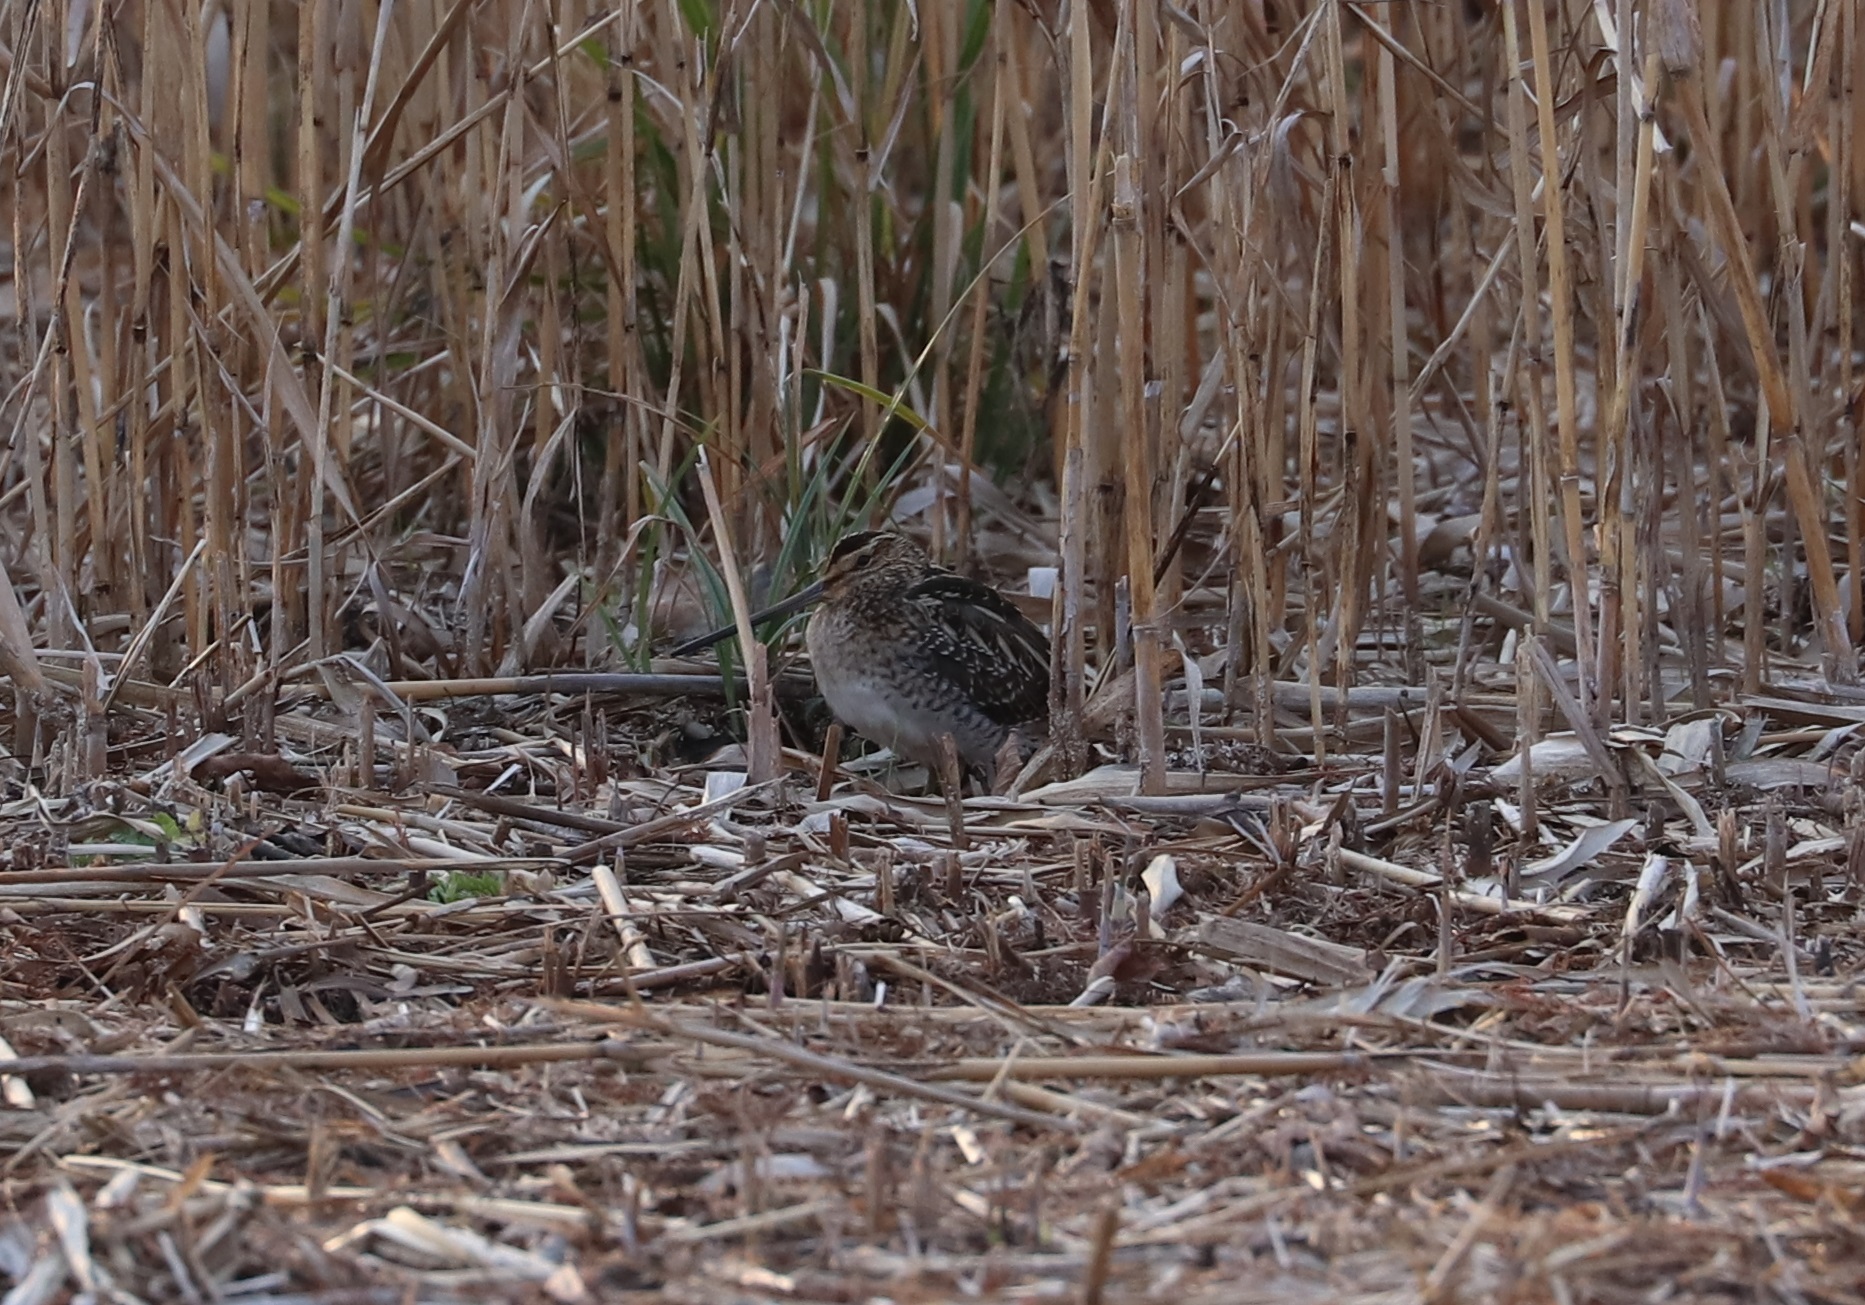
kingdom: Animalia
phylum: Chordata
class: Aves
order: Charadriiformes
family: Scolopacidae
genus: Gallinago
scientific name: Gallinago gallinago
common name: Common snipe
